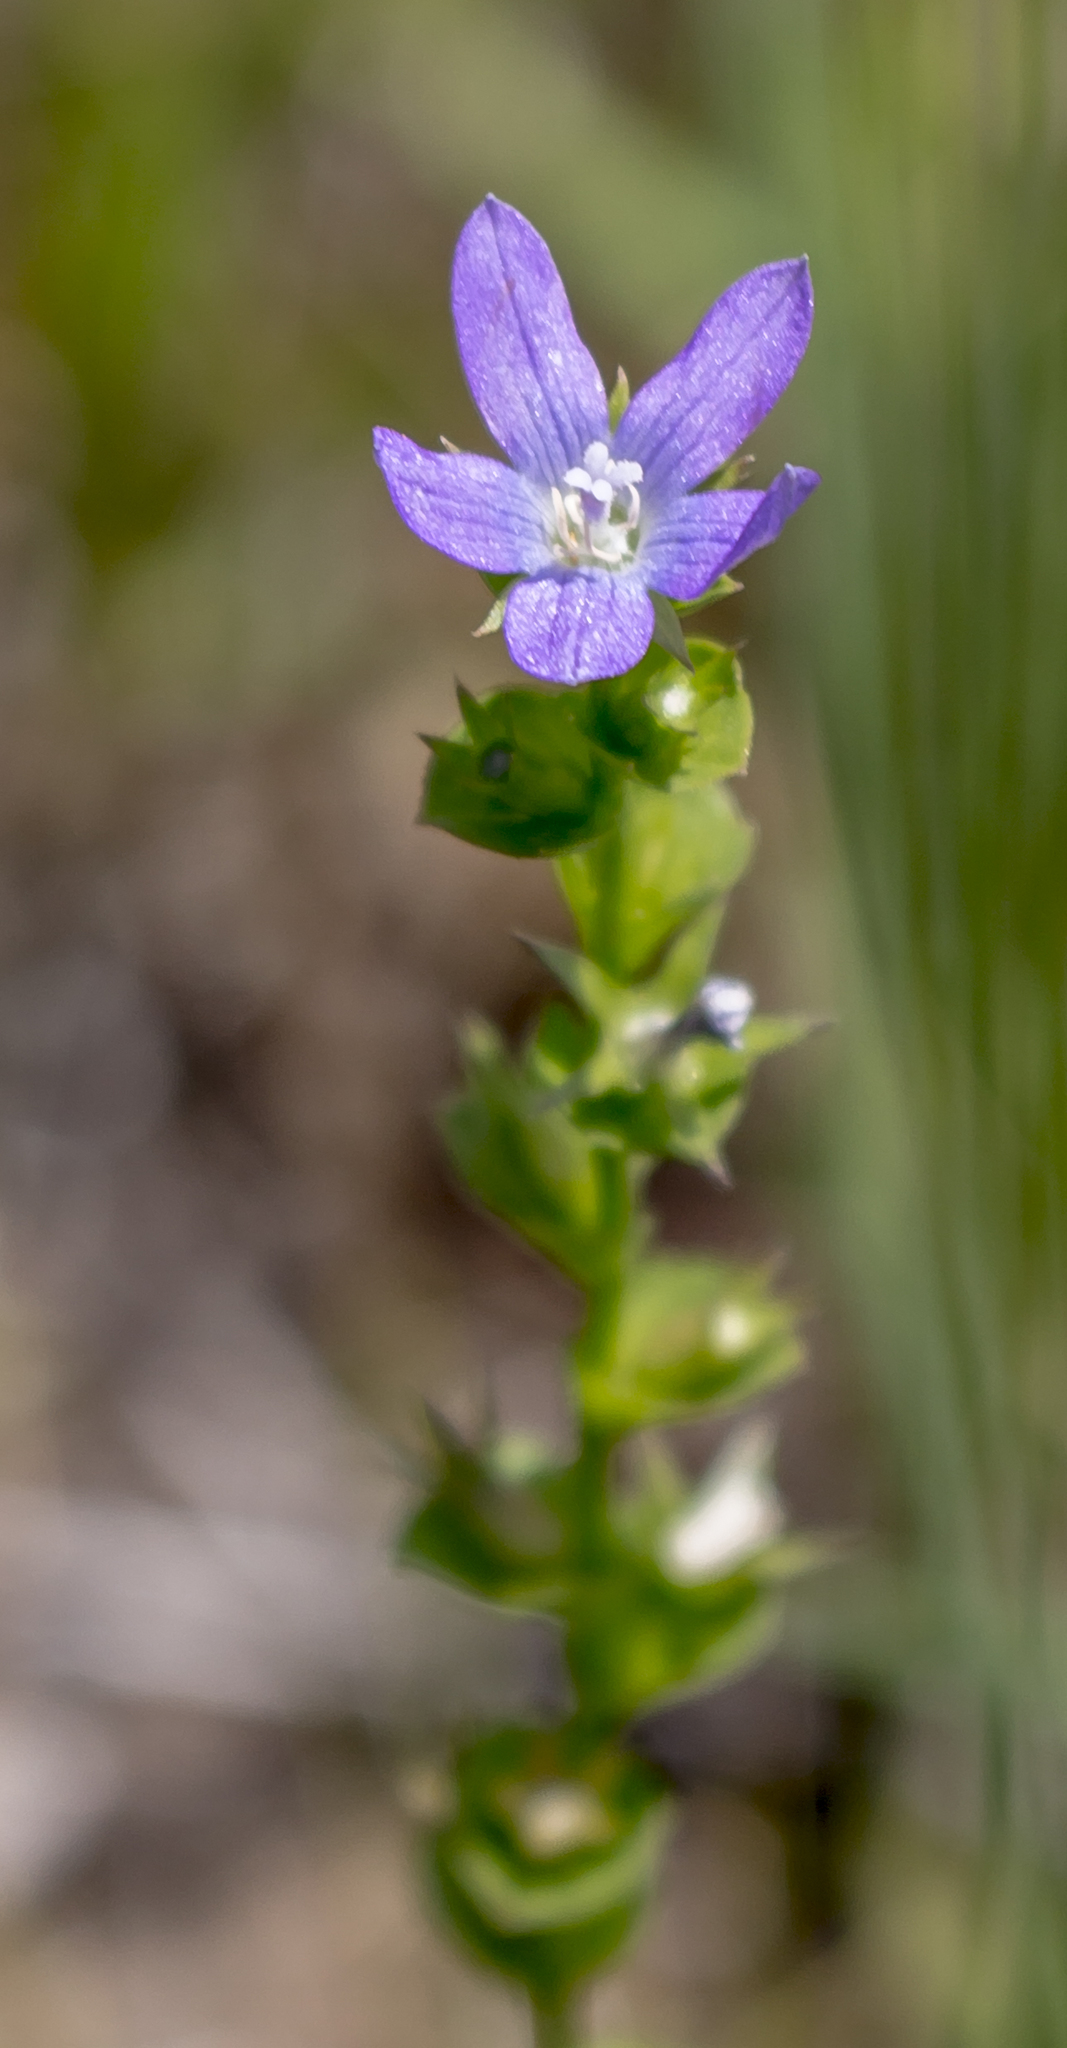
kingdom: Plantae
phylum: Tracheophyta
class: Magnoliopsida
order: Asterales
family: Campanulaceae
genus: Triodanis
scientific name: Triodanis perfoliata
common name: Clasping venus' looking-glass
